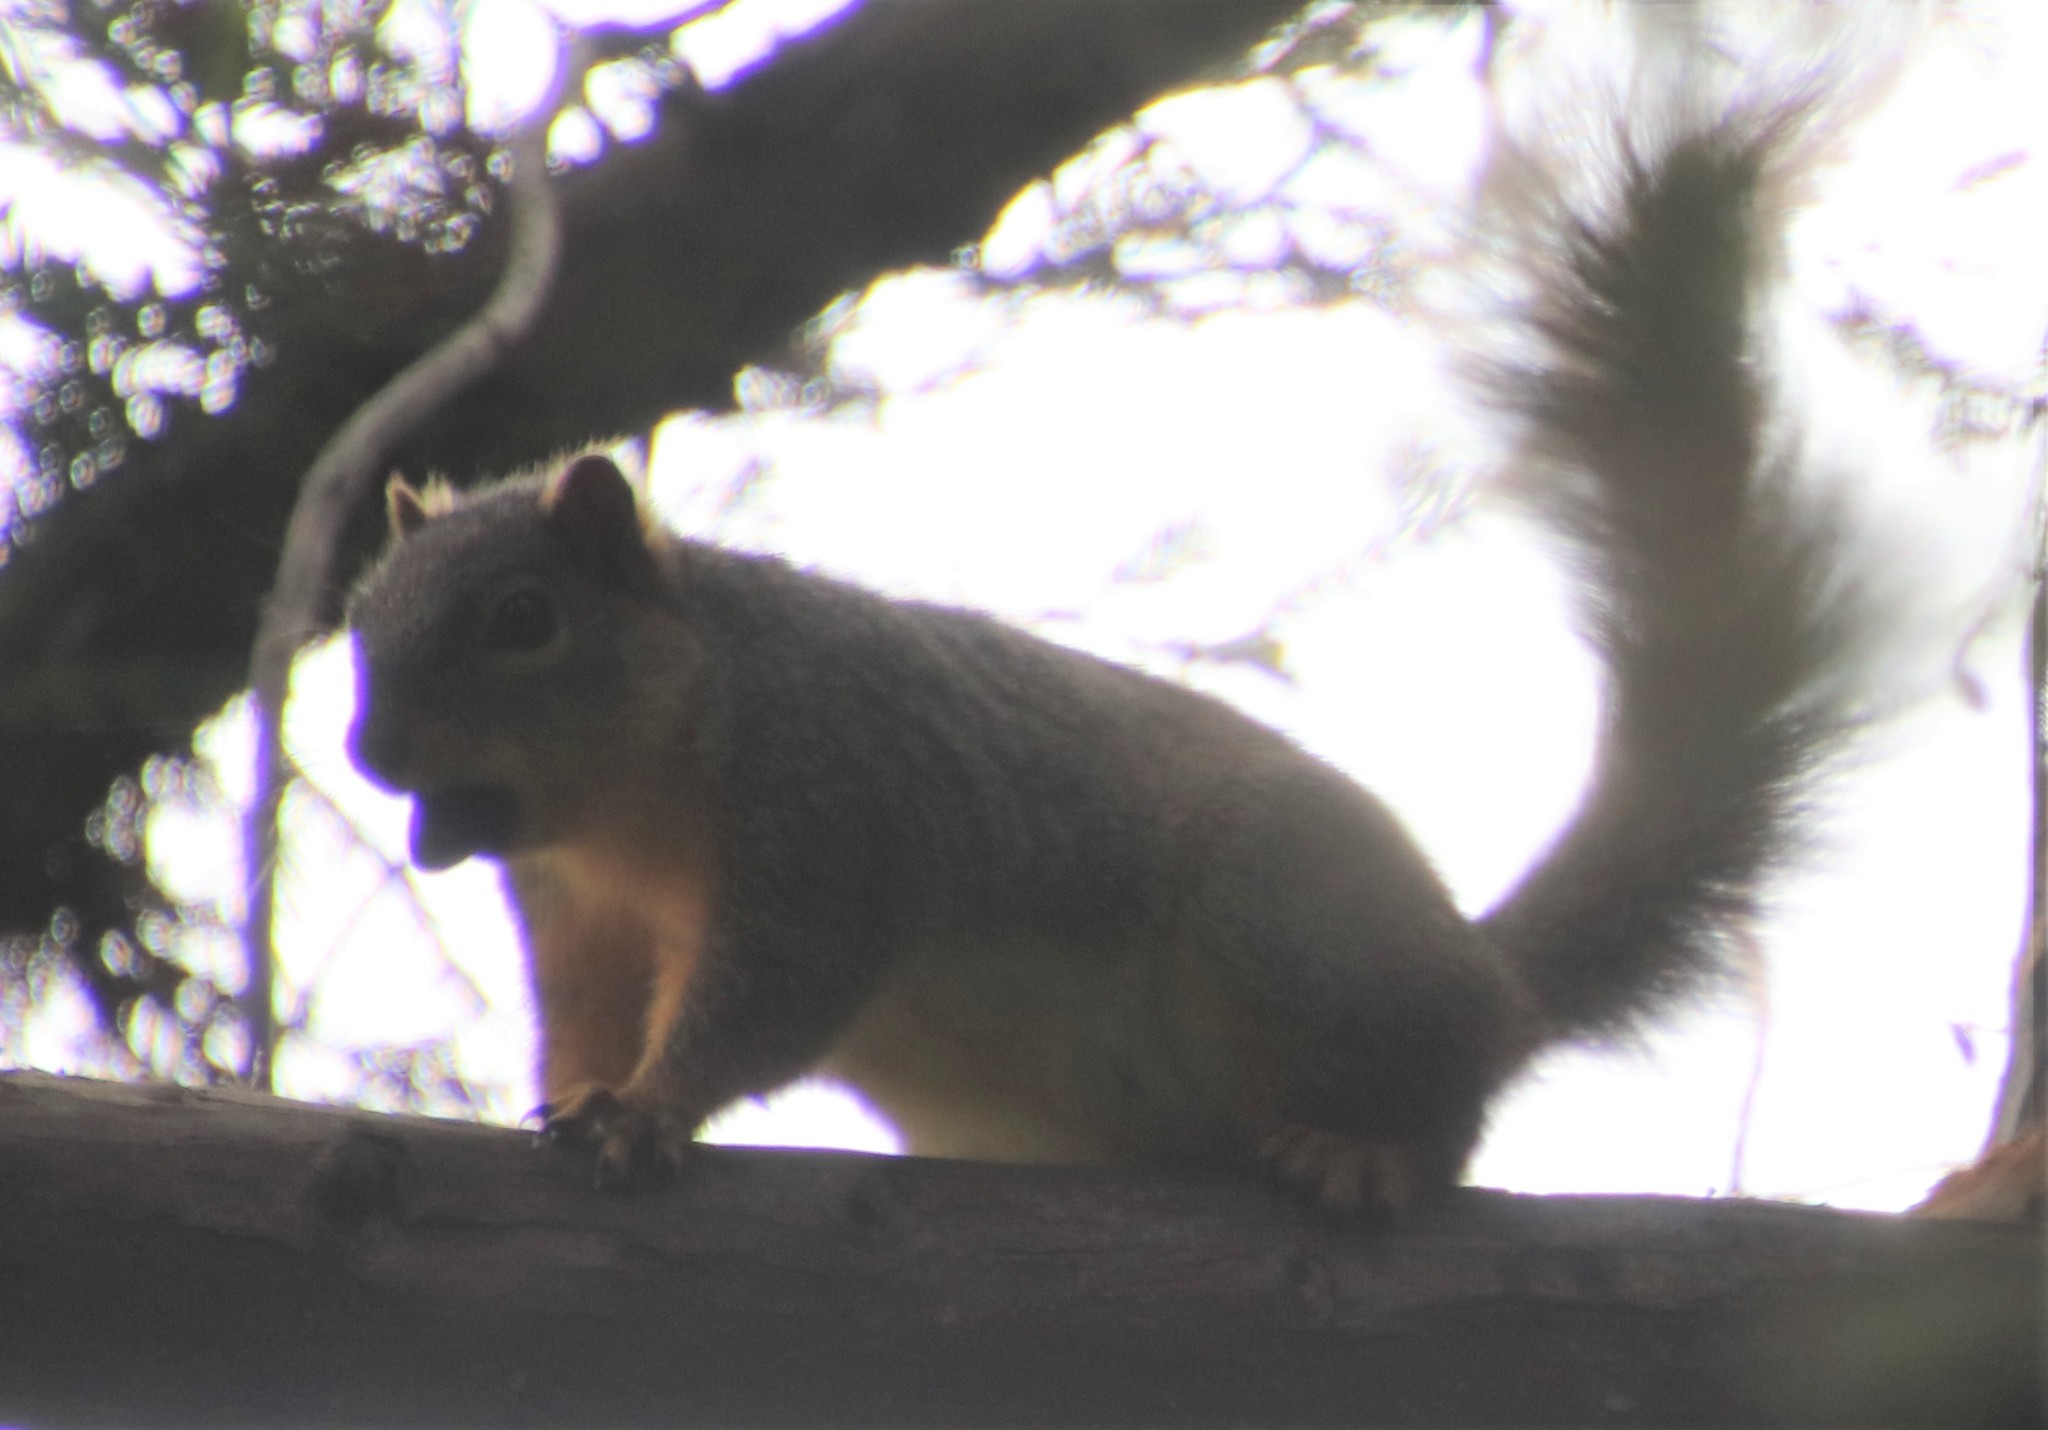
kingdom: Animalia
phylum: Chordata
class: Mammalia
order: Rodentia
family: Sciuridae
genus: Sciurus
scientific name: Sciurus niger
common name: Fox squirrel
